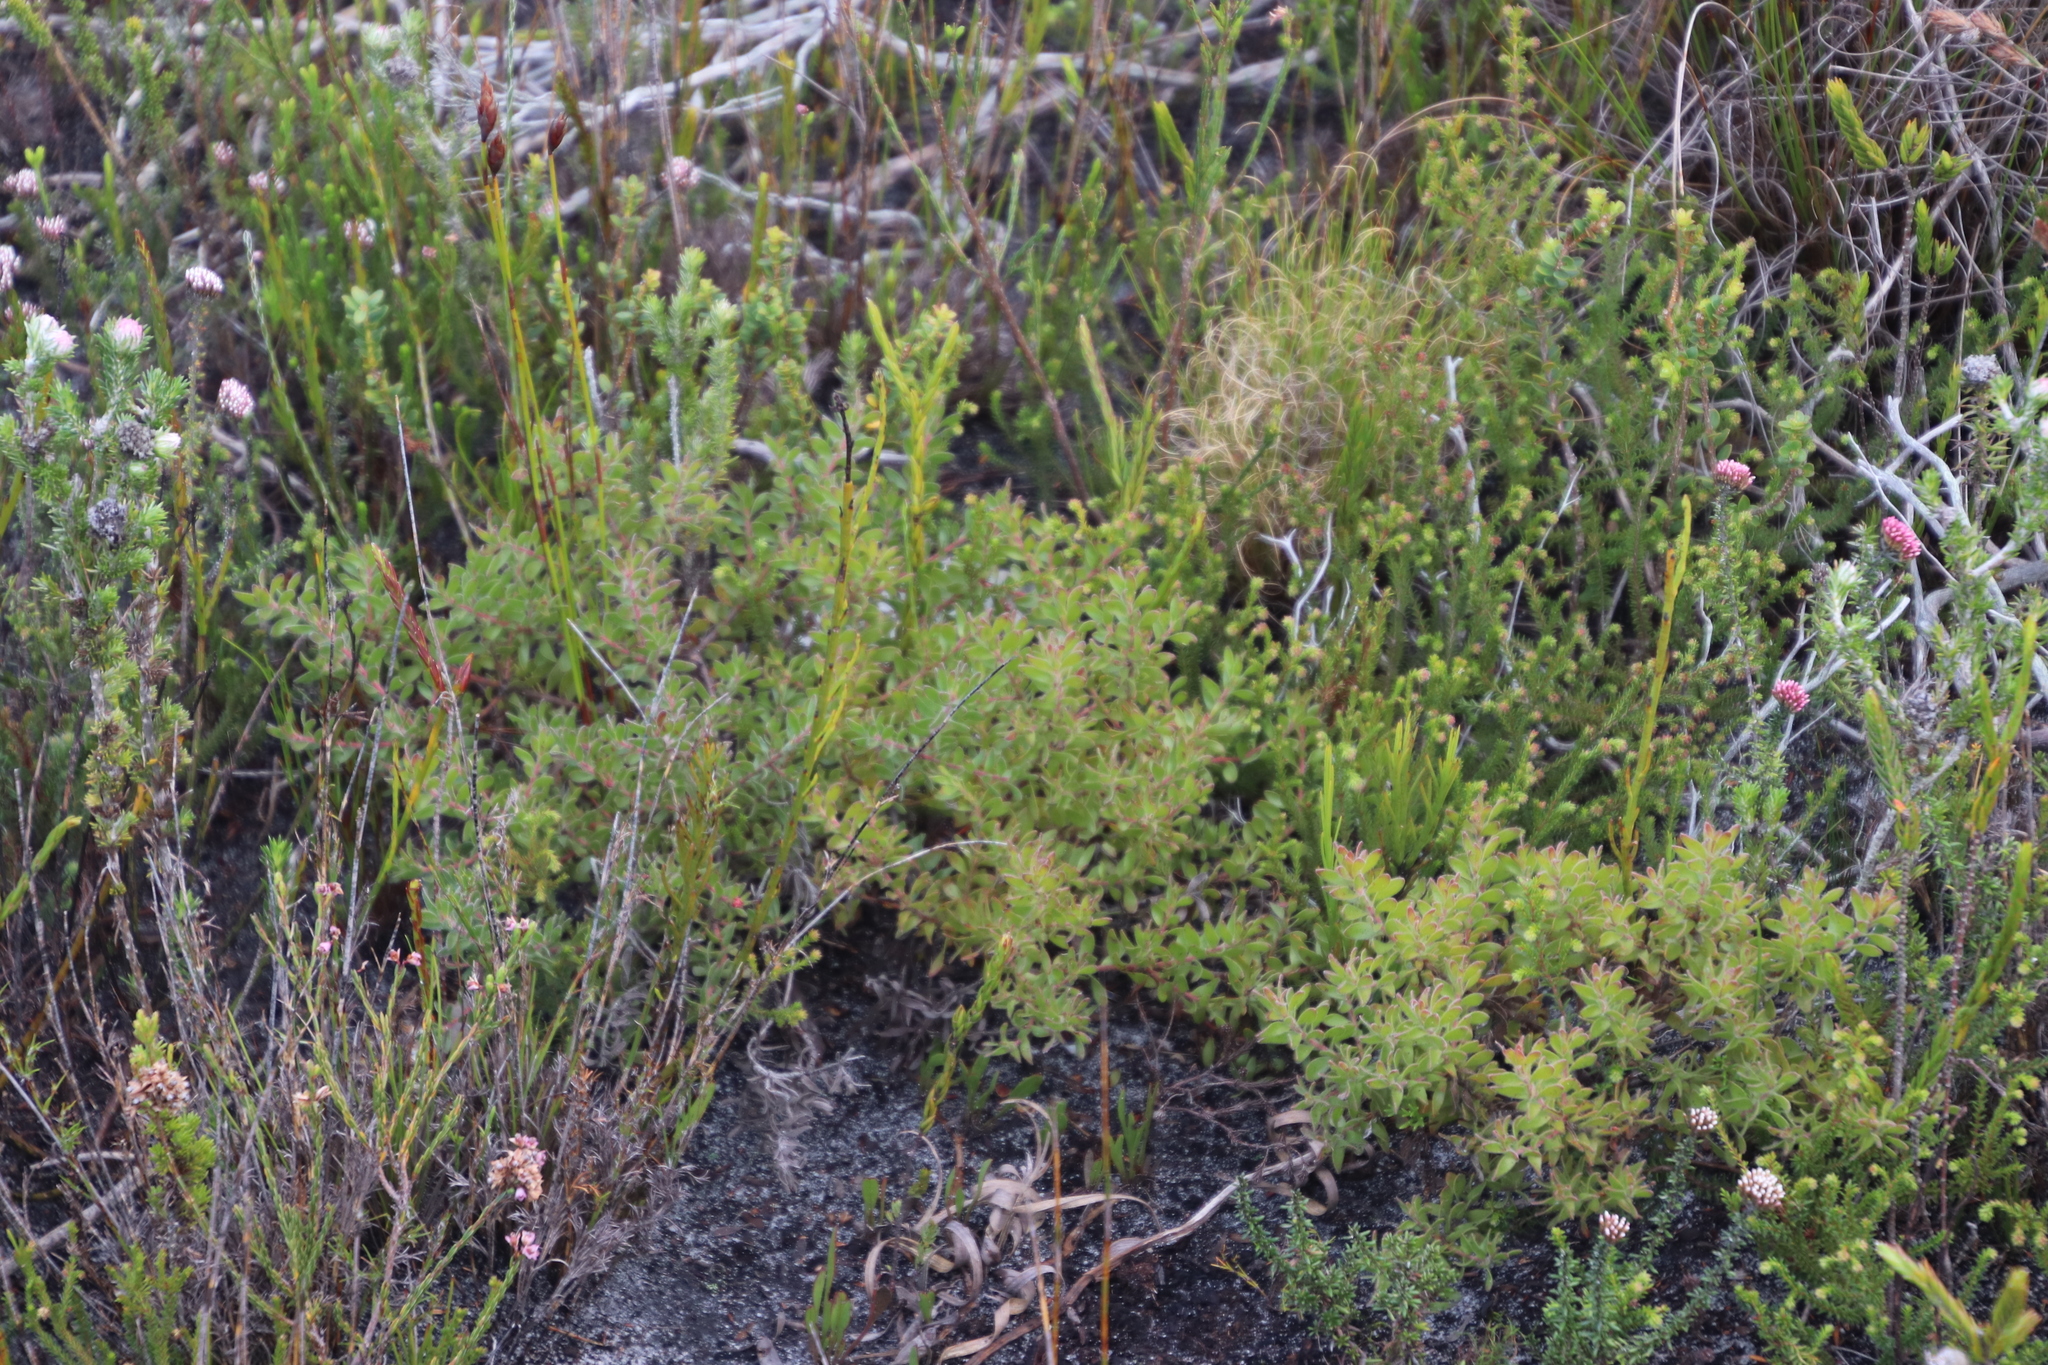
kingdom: Plantae
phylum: Tracheophyta
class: Magnoliopsida
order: Proteales
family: Proteaceae
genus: Diastella
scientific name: Diastella divaricata
